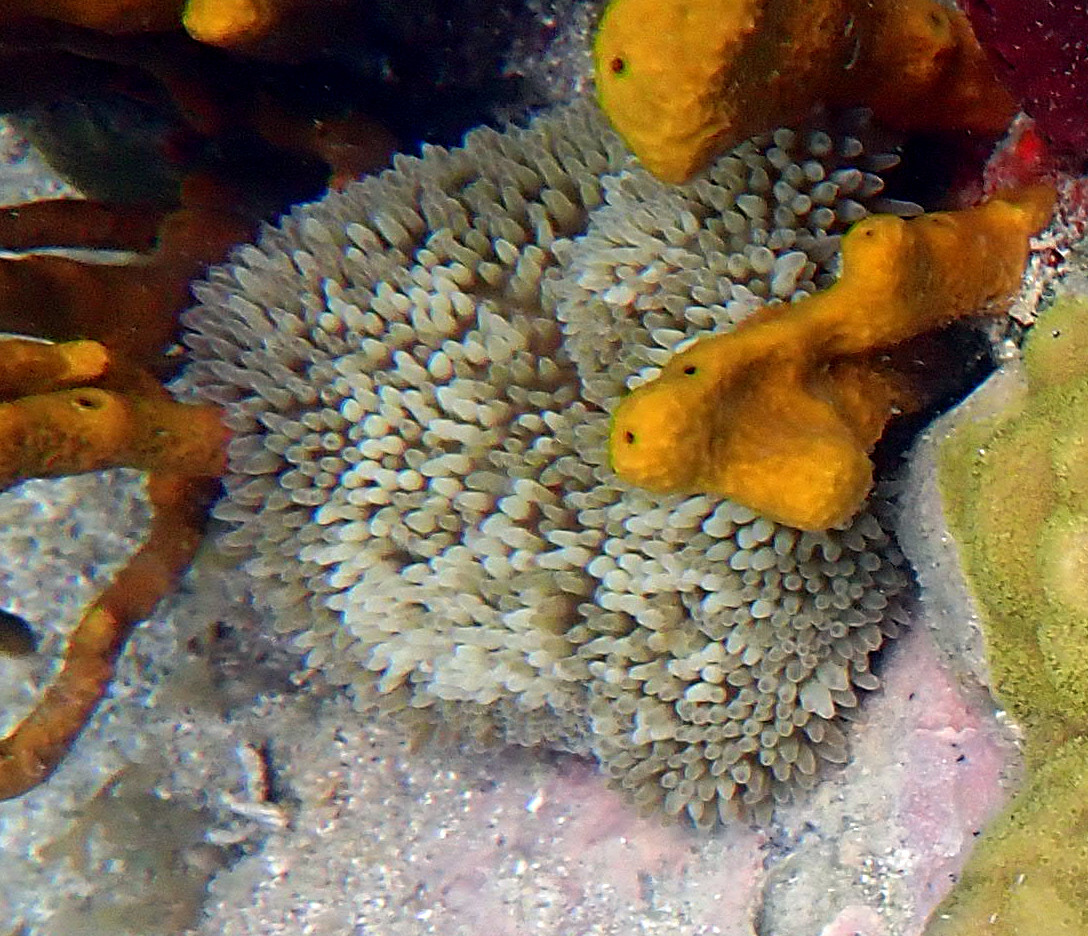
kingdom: Animalia
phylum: Cnidaria
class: Anthozoa
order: Actiniaria
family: Stichodactylidae
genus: Stichodactyla
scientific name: Stichodactyla helianthus
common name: Sun anemone
